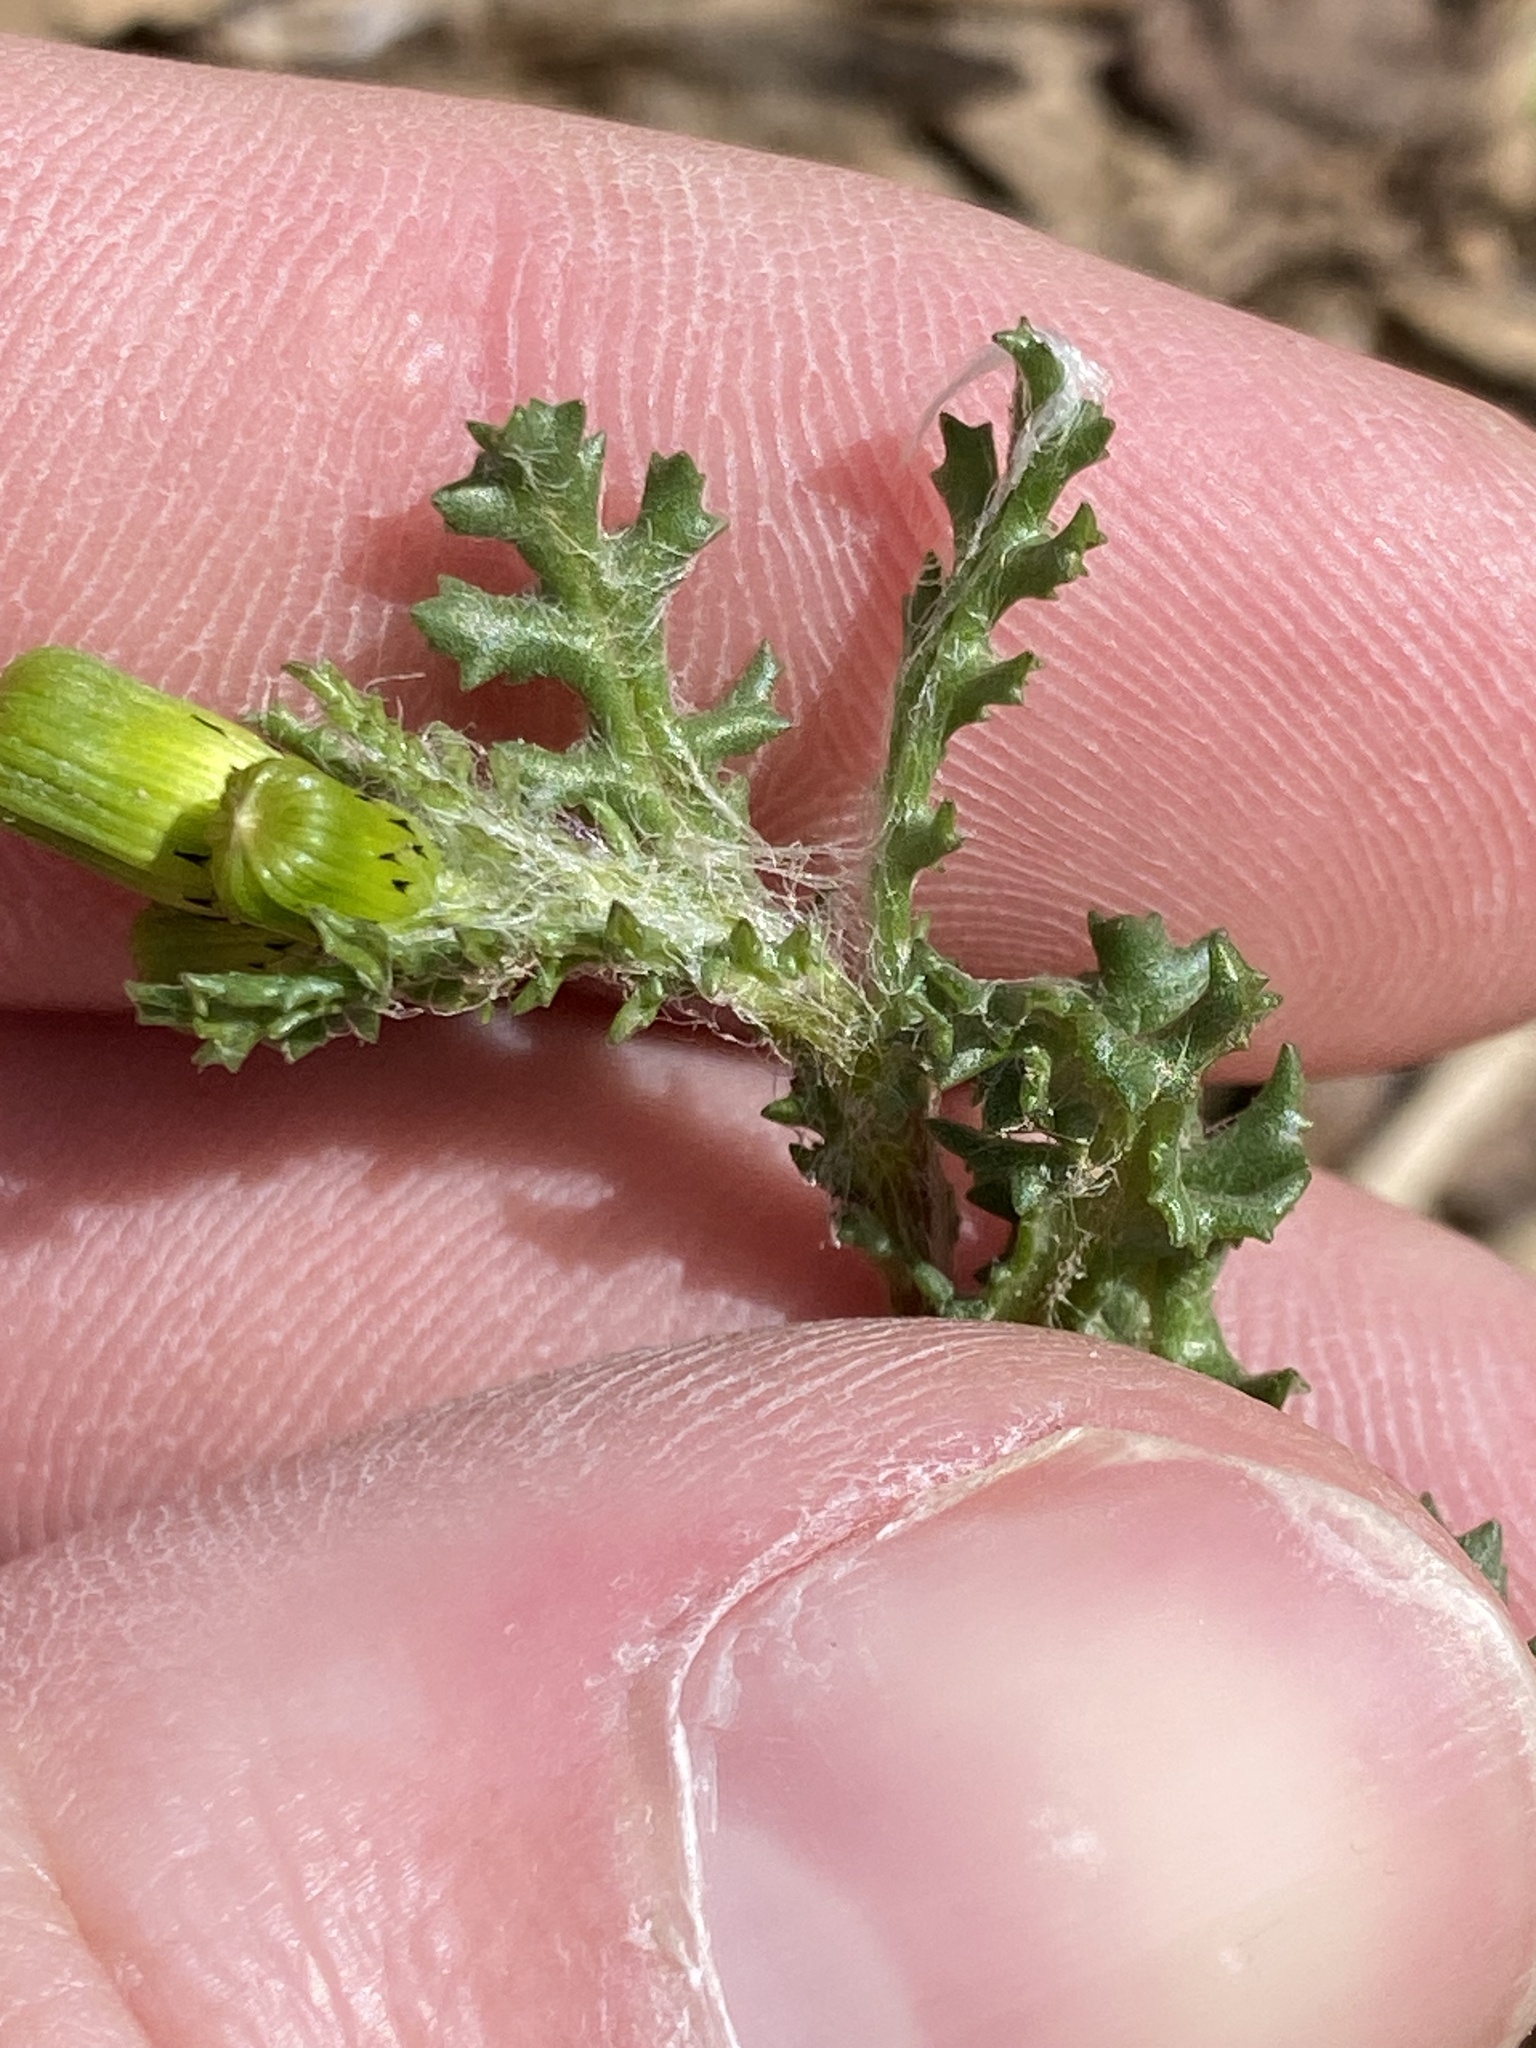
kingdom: Plantae
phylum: Tracheophyta
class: Magnoliopsida
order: Asterales
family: Asteraceae
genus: Senecio
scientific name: Senecio vulgaris
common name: Old-man-in-the-spring
